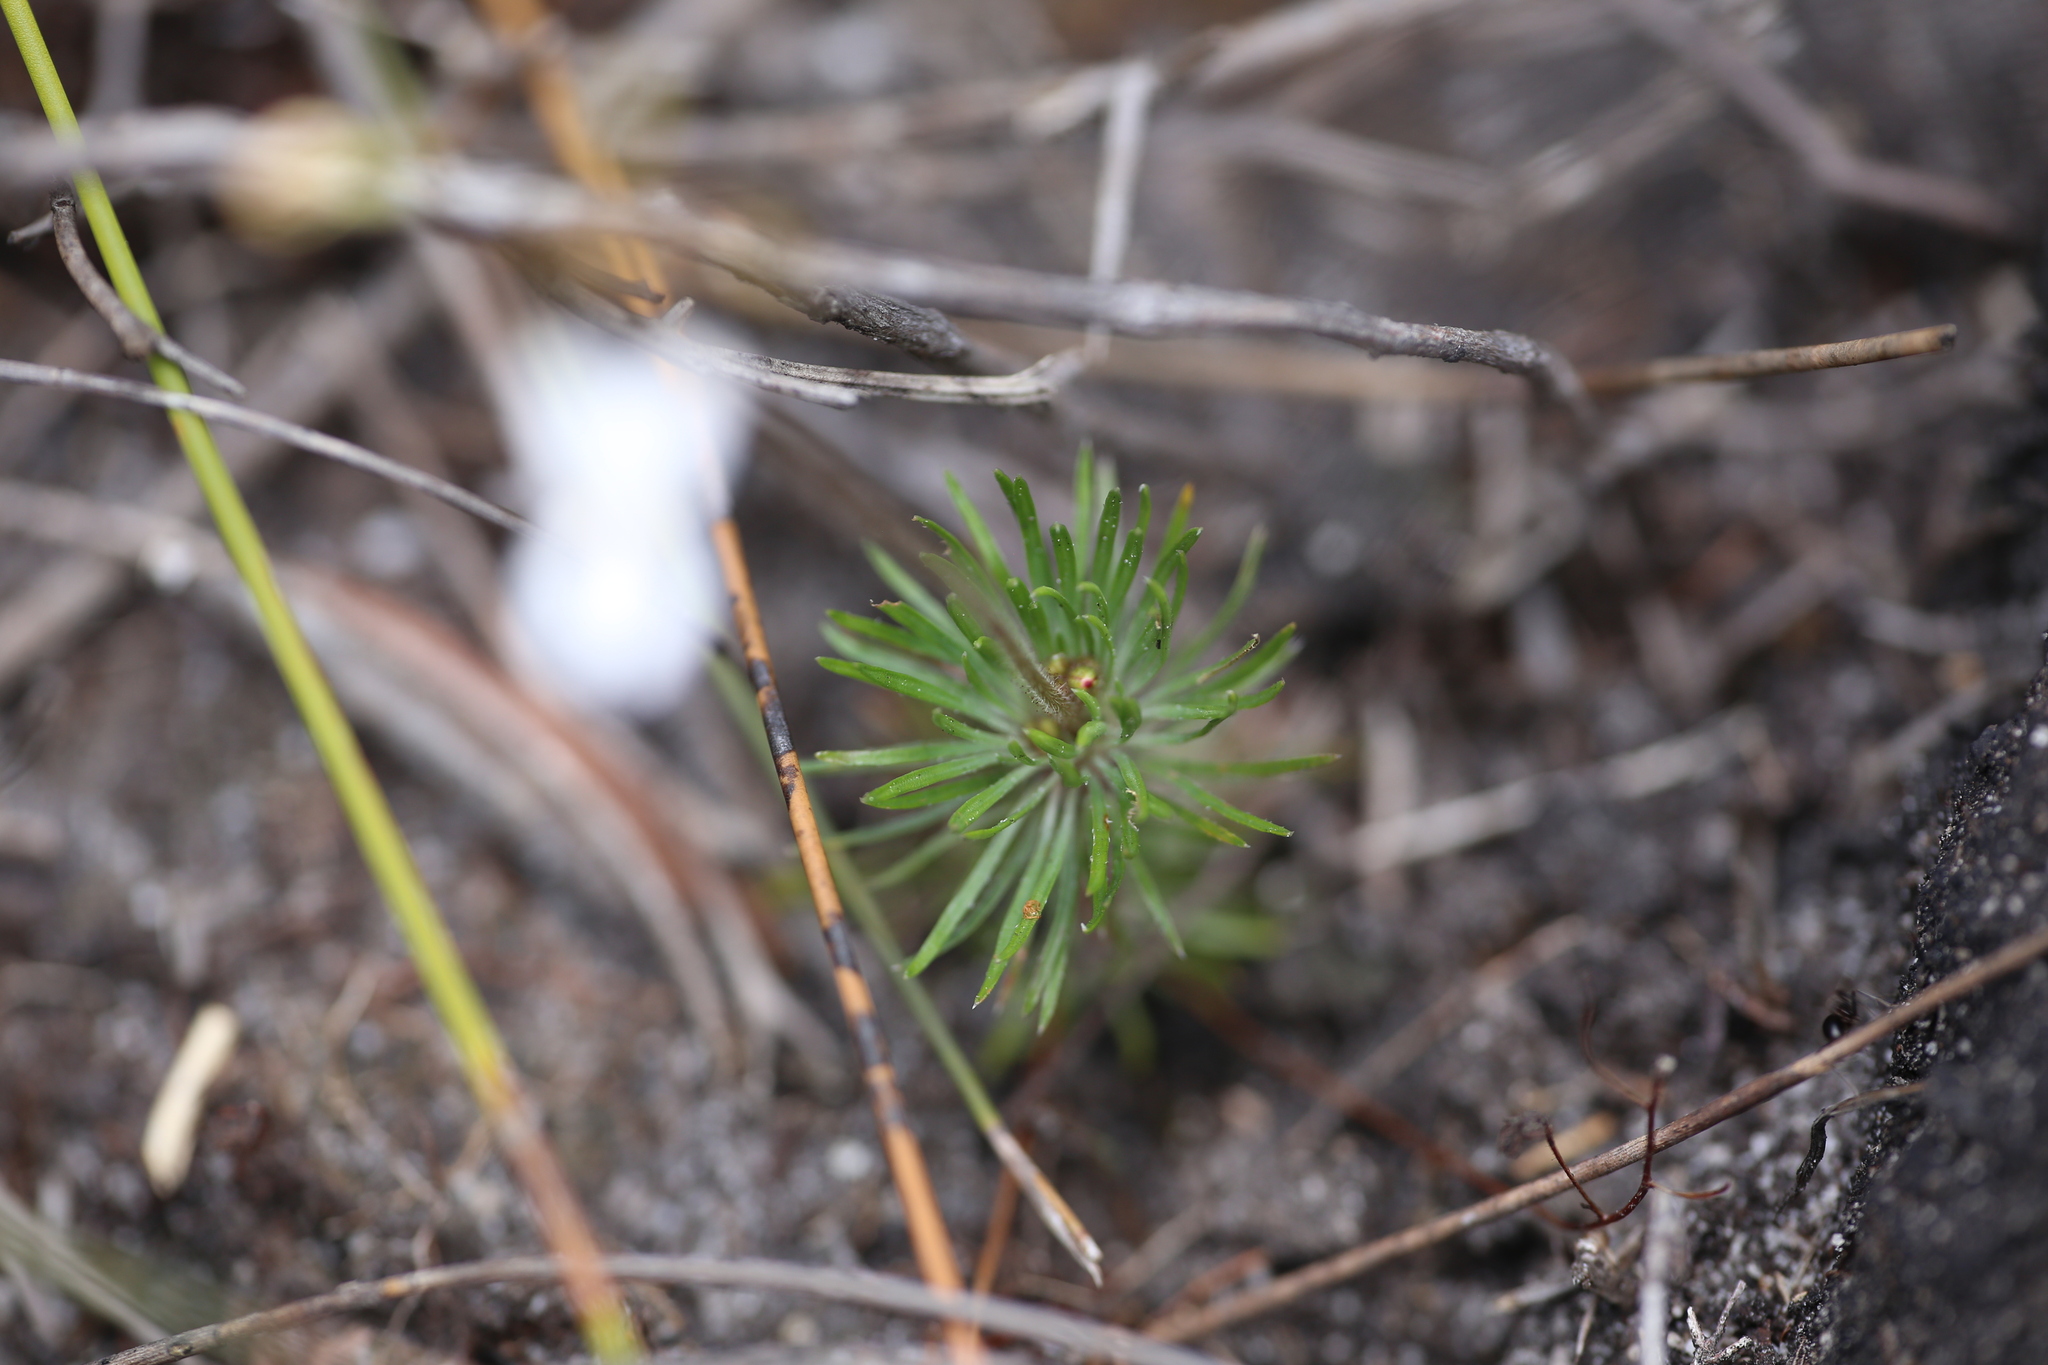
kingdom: Plantae
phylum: Tracheophyta
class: Magnoliopsida
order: Asterales
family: Stylidiaceae
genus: Stylidium
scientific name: Stylidium spinulosum
